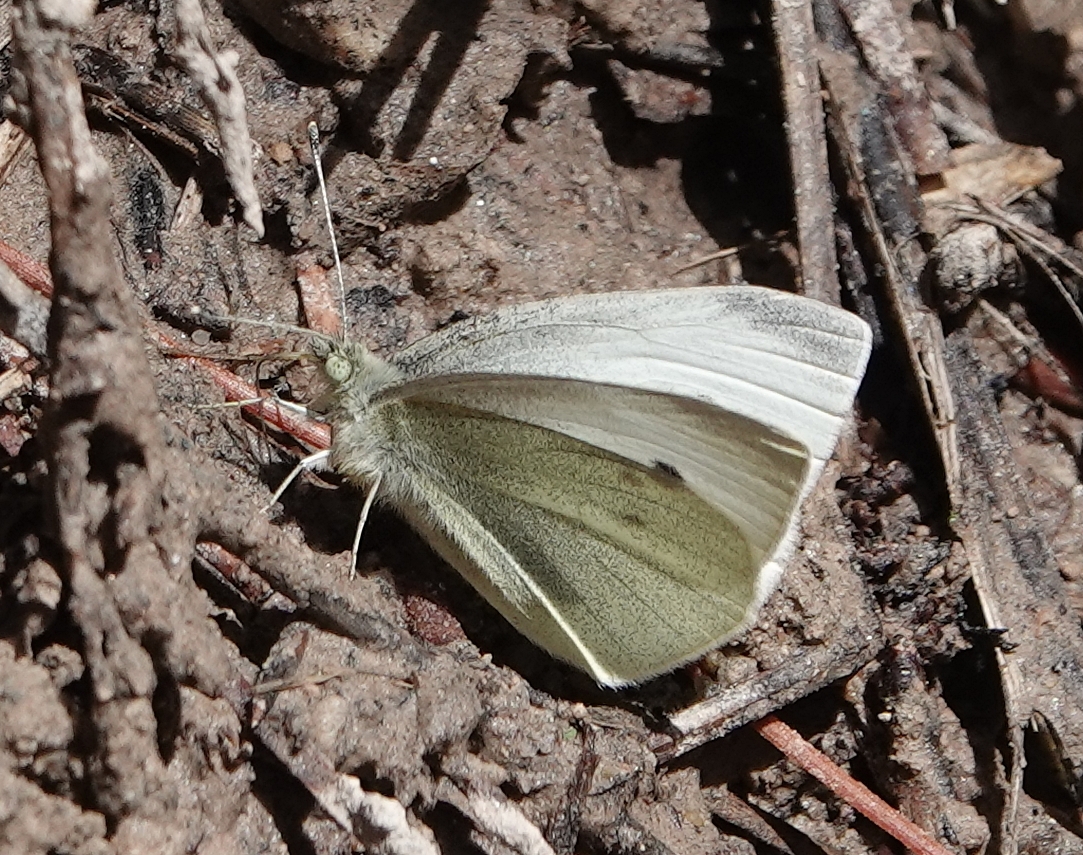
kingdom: Animalia
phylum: Arthropoda
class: Insecta
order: Lepidoptera
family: Pieridae
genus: Pieris
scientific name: Pieris rapae
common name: Small white
